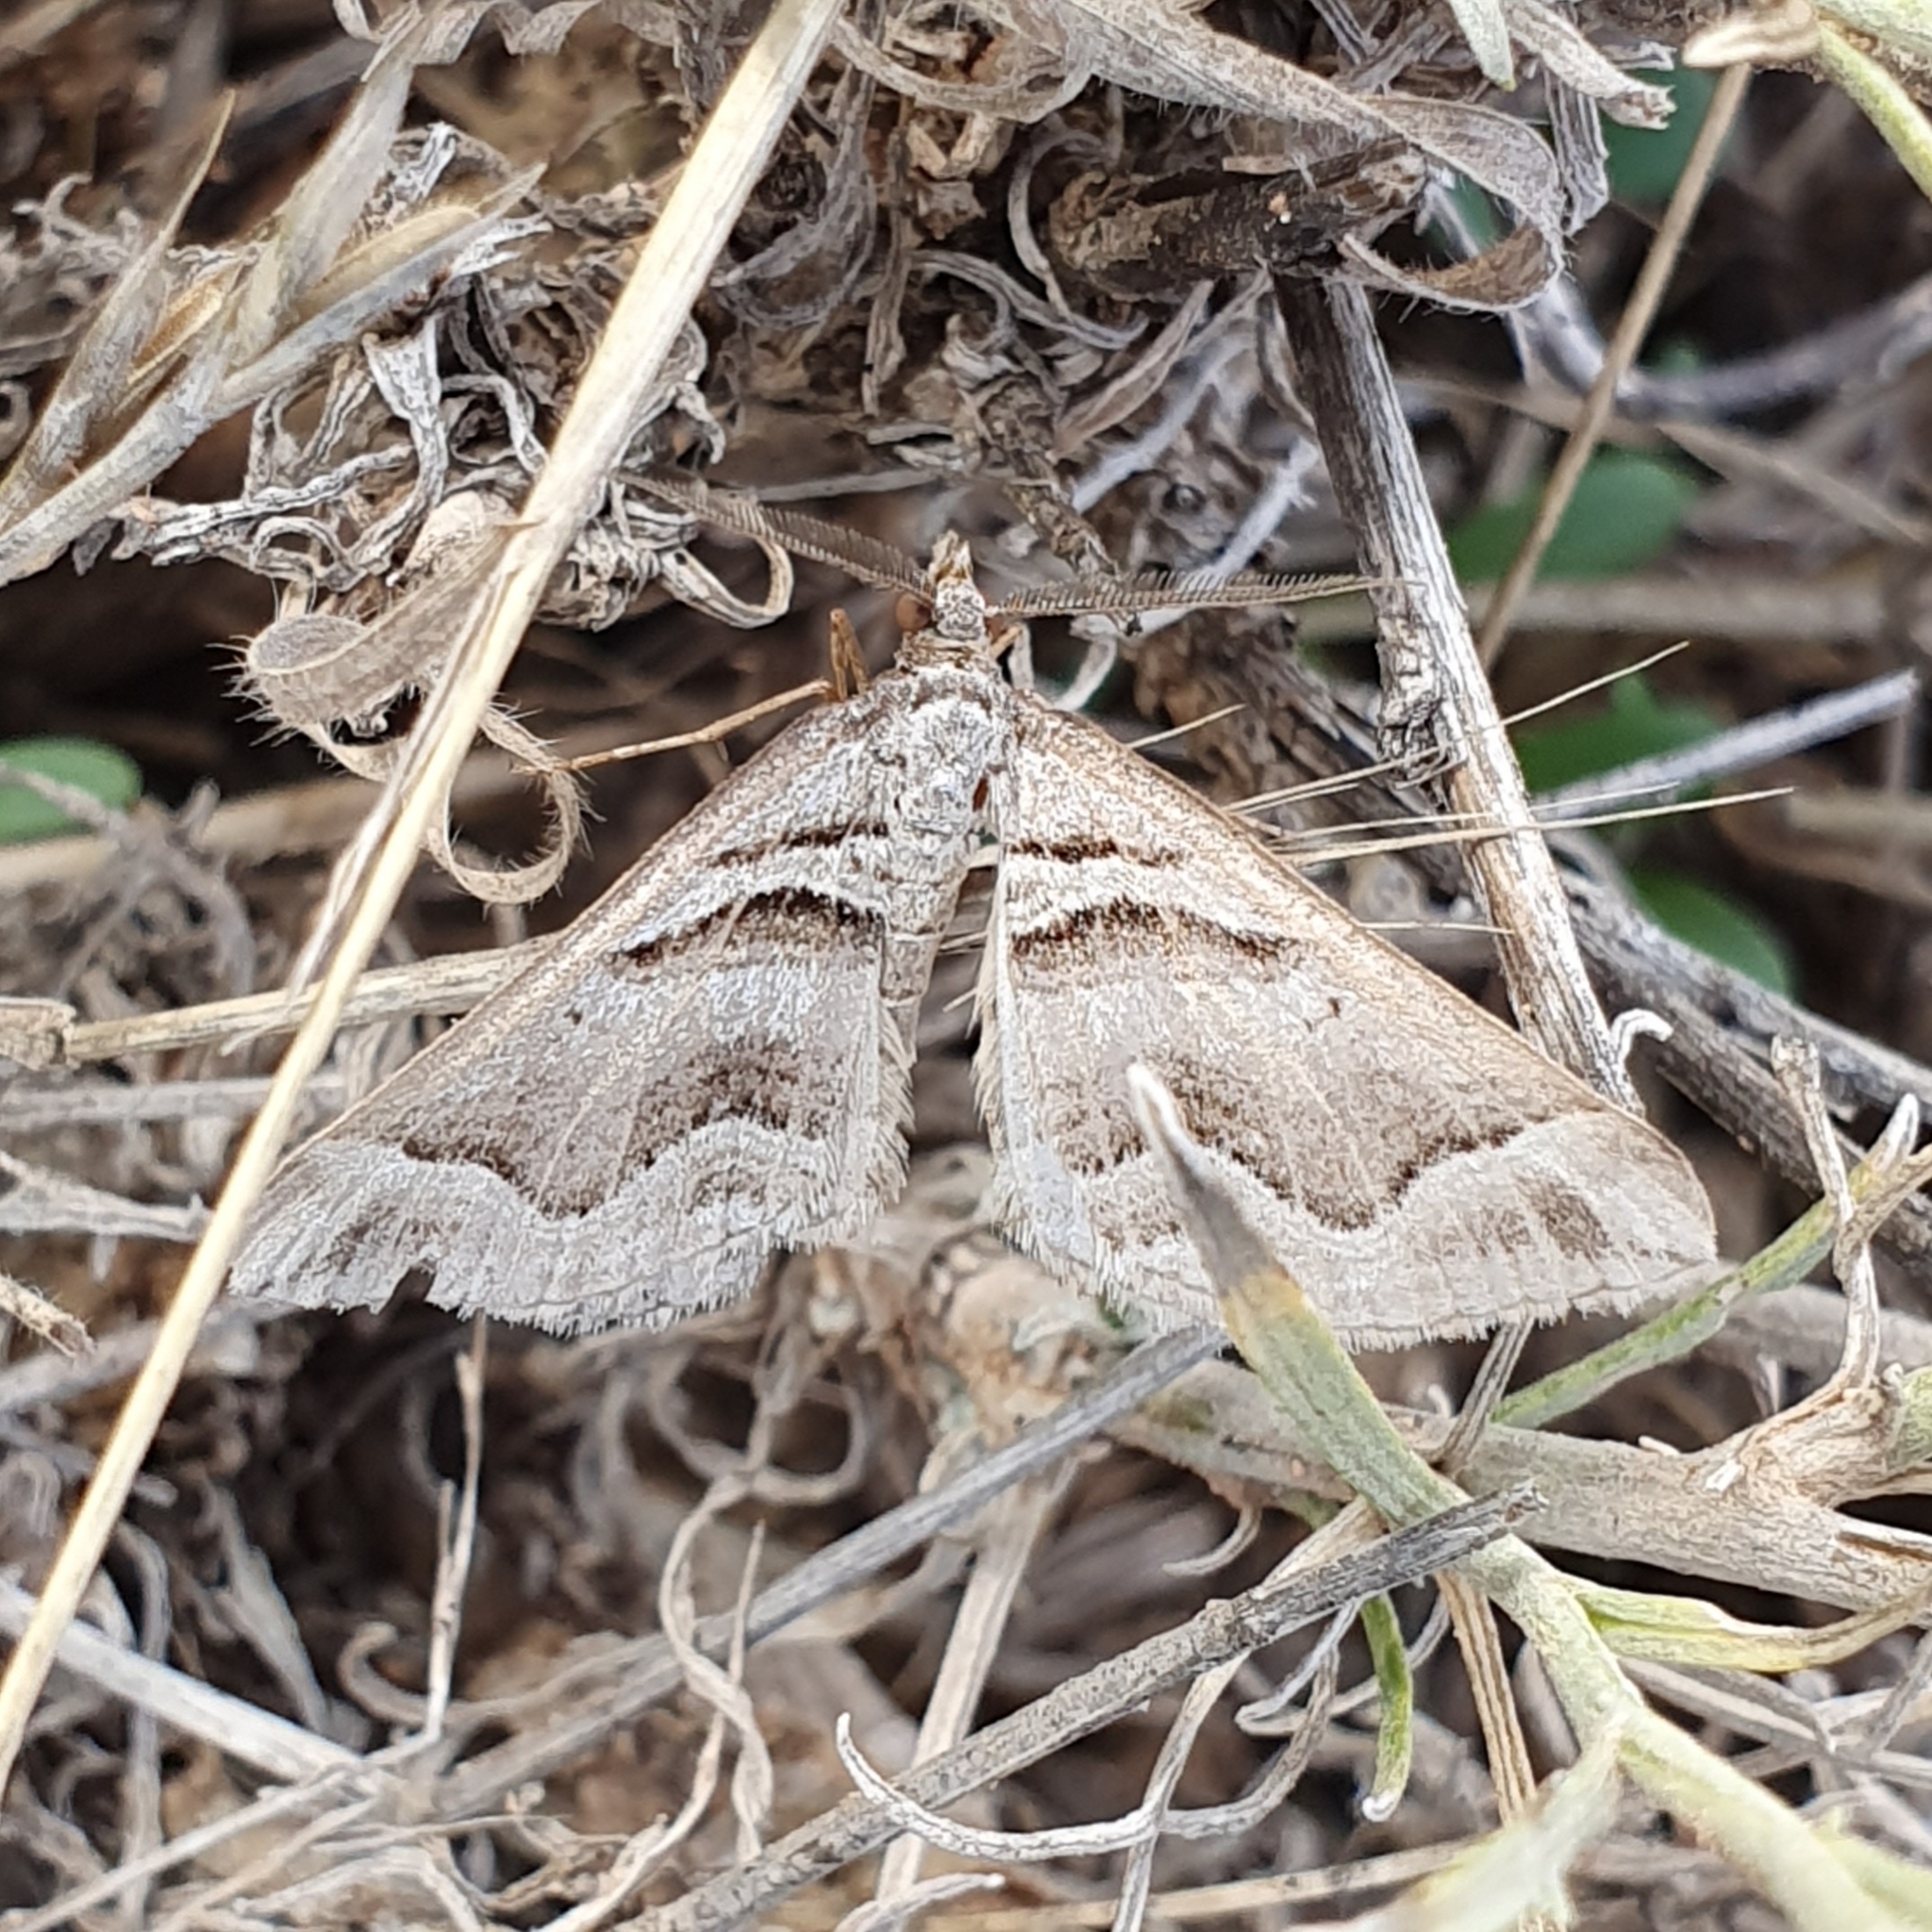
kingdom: Animalia
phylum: Arthropoda
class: Insecta
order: Lepidoptera
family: Geometridae
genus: Scotopteryx
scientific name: Scotopteryx peribolata
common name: Spanish carpet
